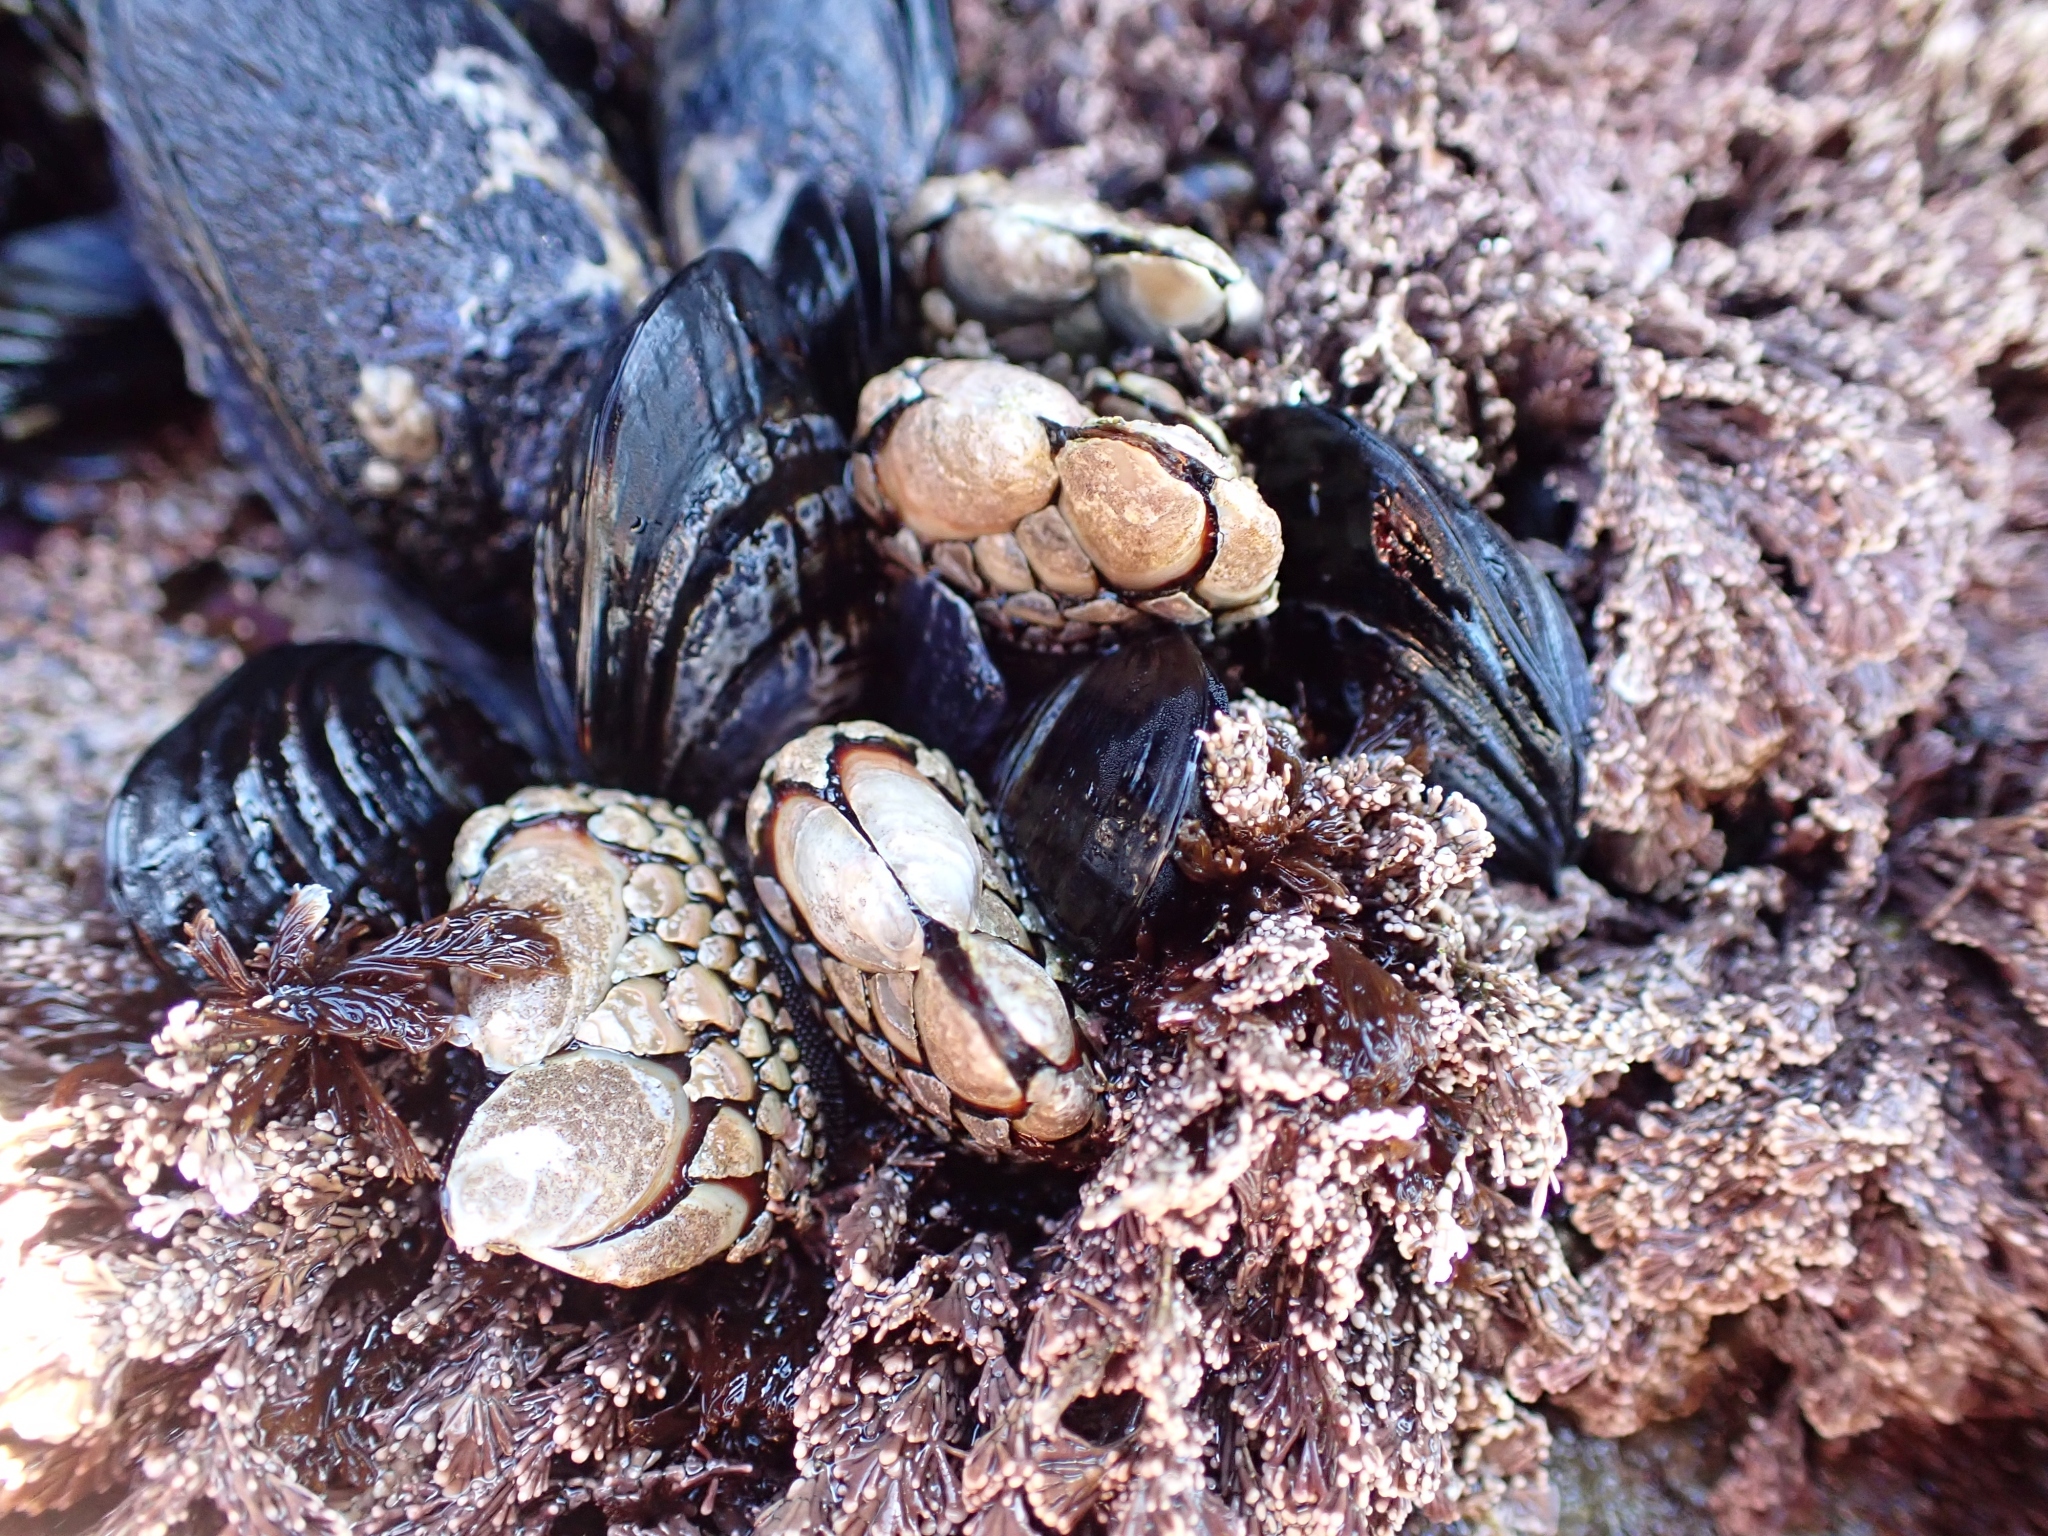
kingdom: Animalia
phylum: Arthropoda
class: Maxillopoda
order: Pedunculata
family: Pollicipedidae
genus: Pollicipes
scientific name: Pollicipes polymerus
